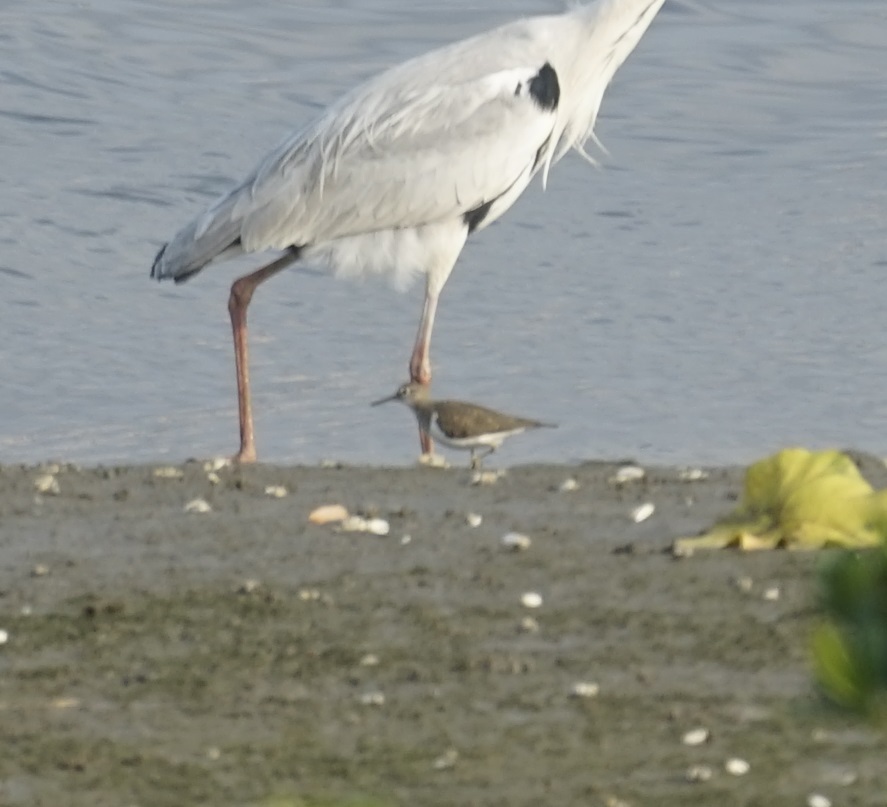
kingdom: Animalia
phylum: Chordata
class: Aves
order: Charadriiformes
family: Scolopacidae
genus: Actitis
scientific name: Actitis hypoleucos
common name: Common sandpiper
